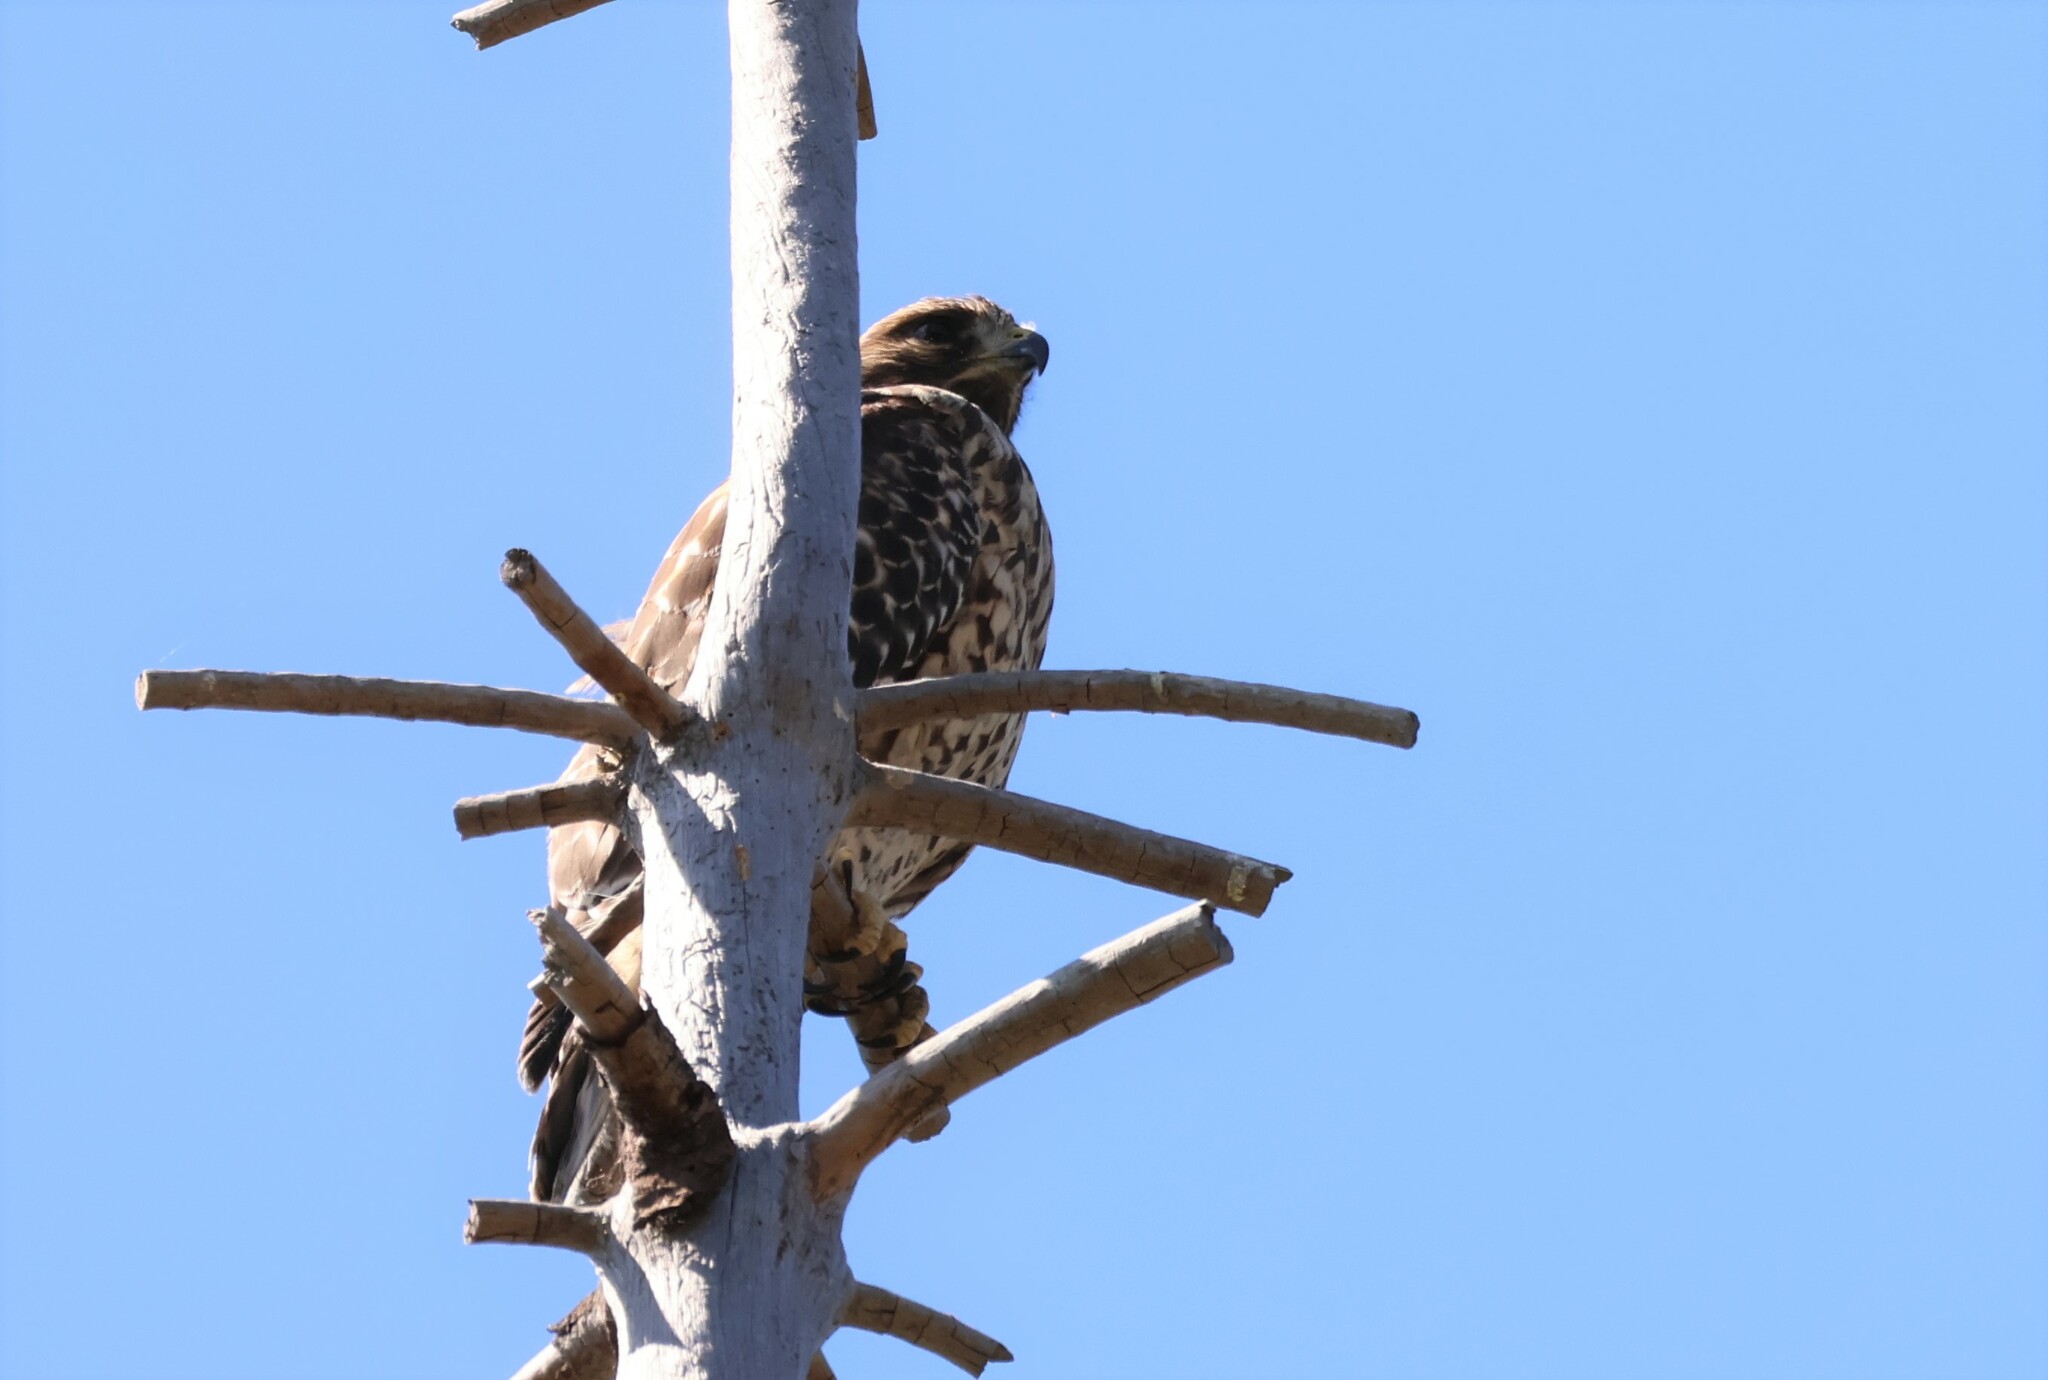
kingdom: Animalia
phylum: Chordata
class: Aves
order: Accipitriformes
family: Accipitridae
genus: Buteo
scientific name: Buteo lineatus
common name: Red-shouldered hawk
